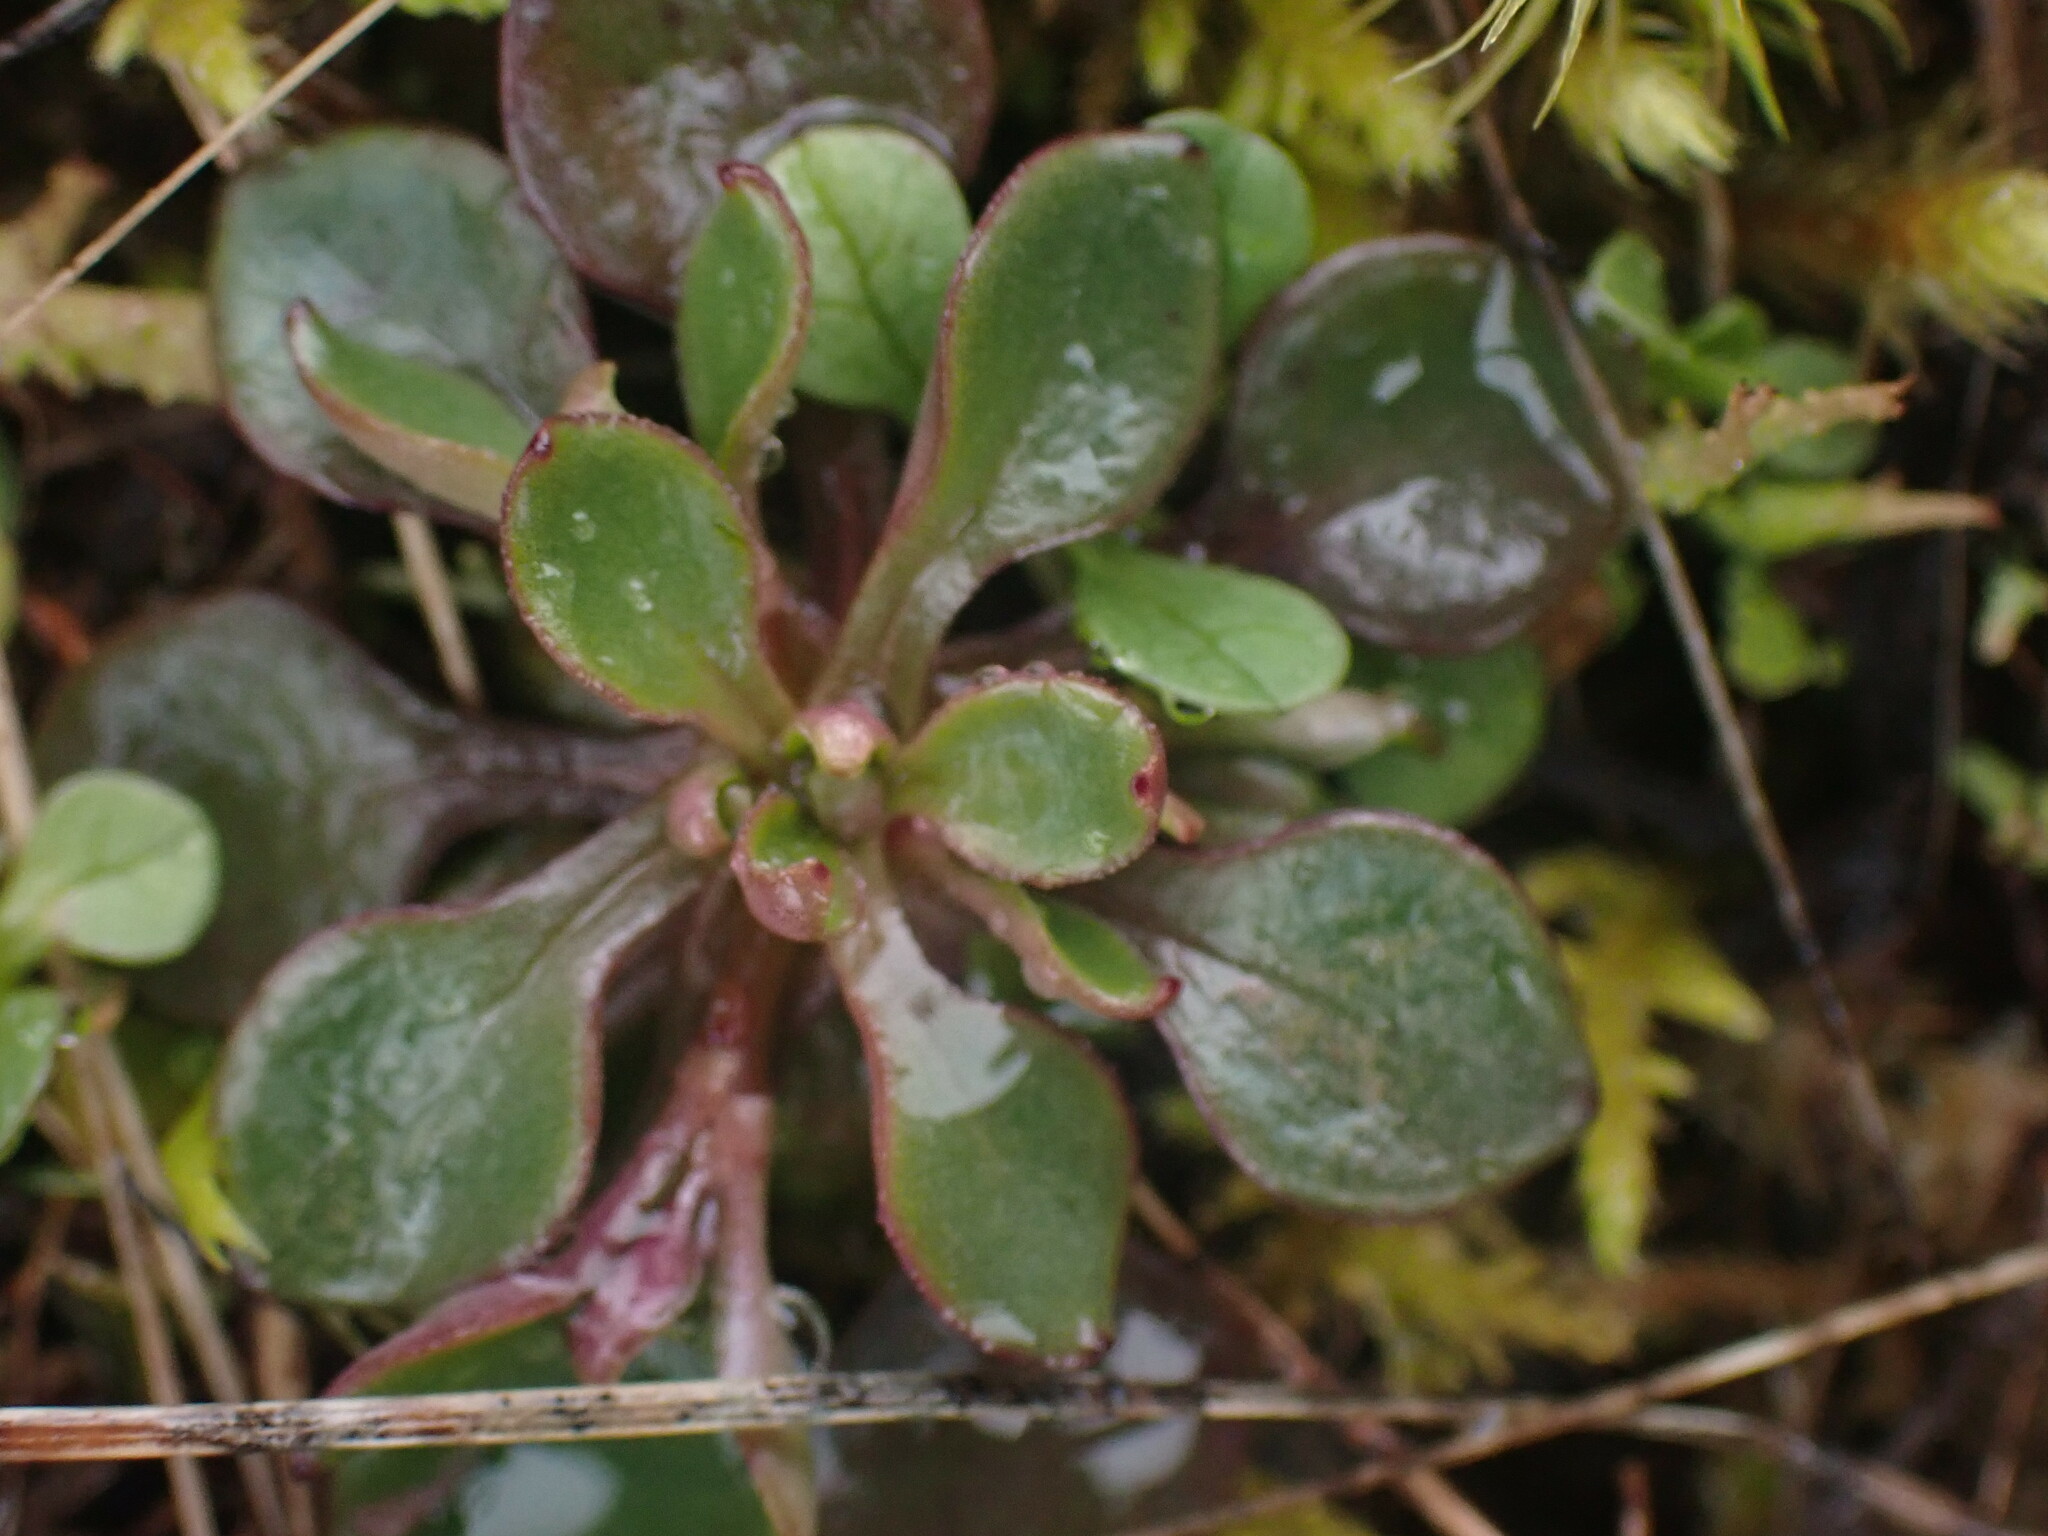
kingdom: Plantae
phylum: Tracheophyta
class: Magnoliopsida
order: Caryophyllales
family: Montiaceae
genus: Montia
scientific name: Montia parvifolia
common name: Small-leaved blinks
